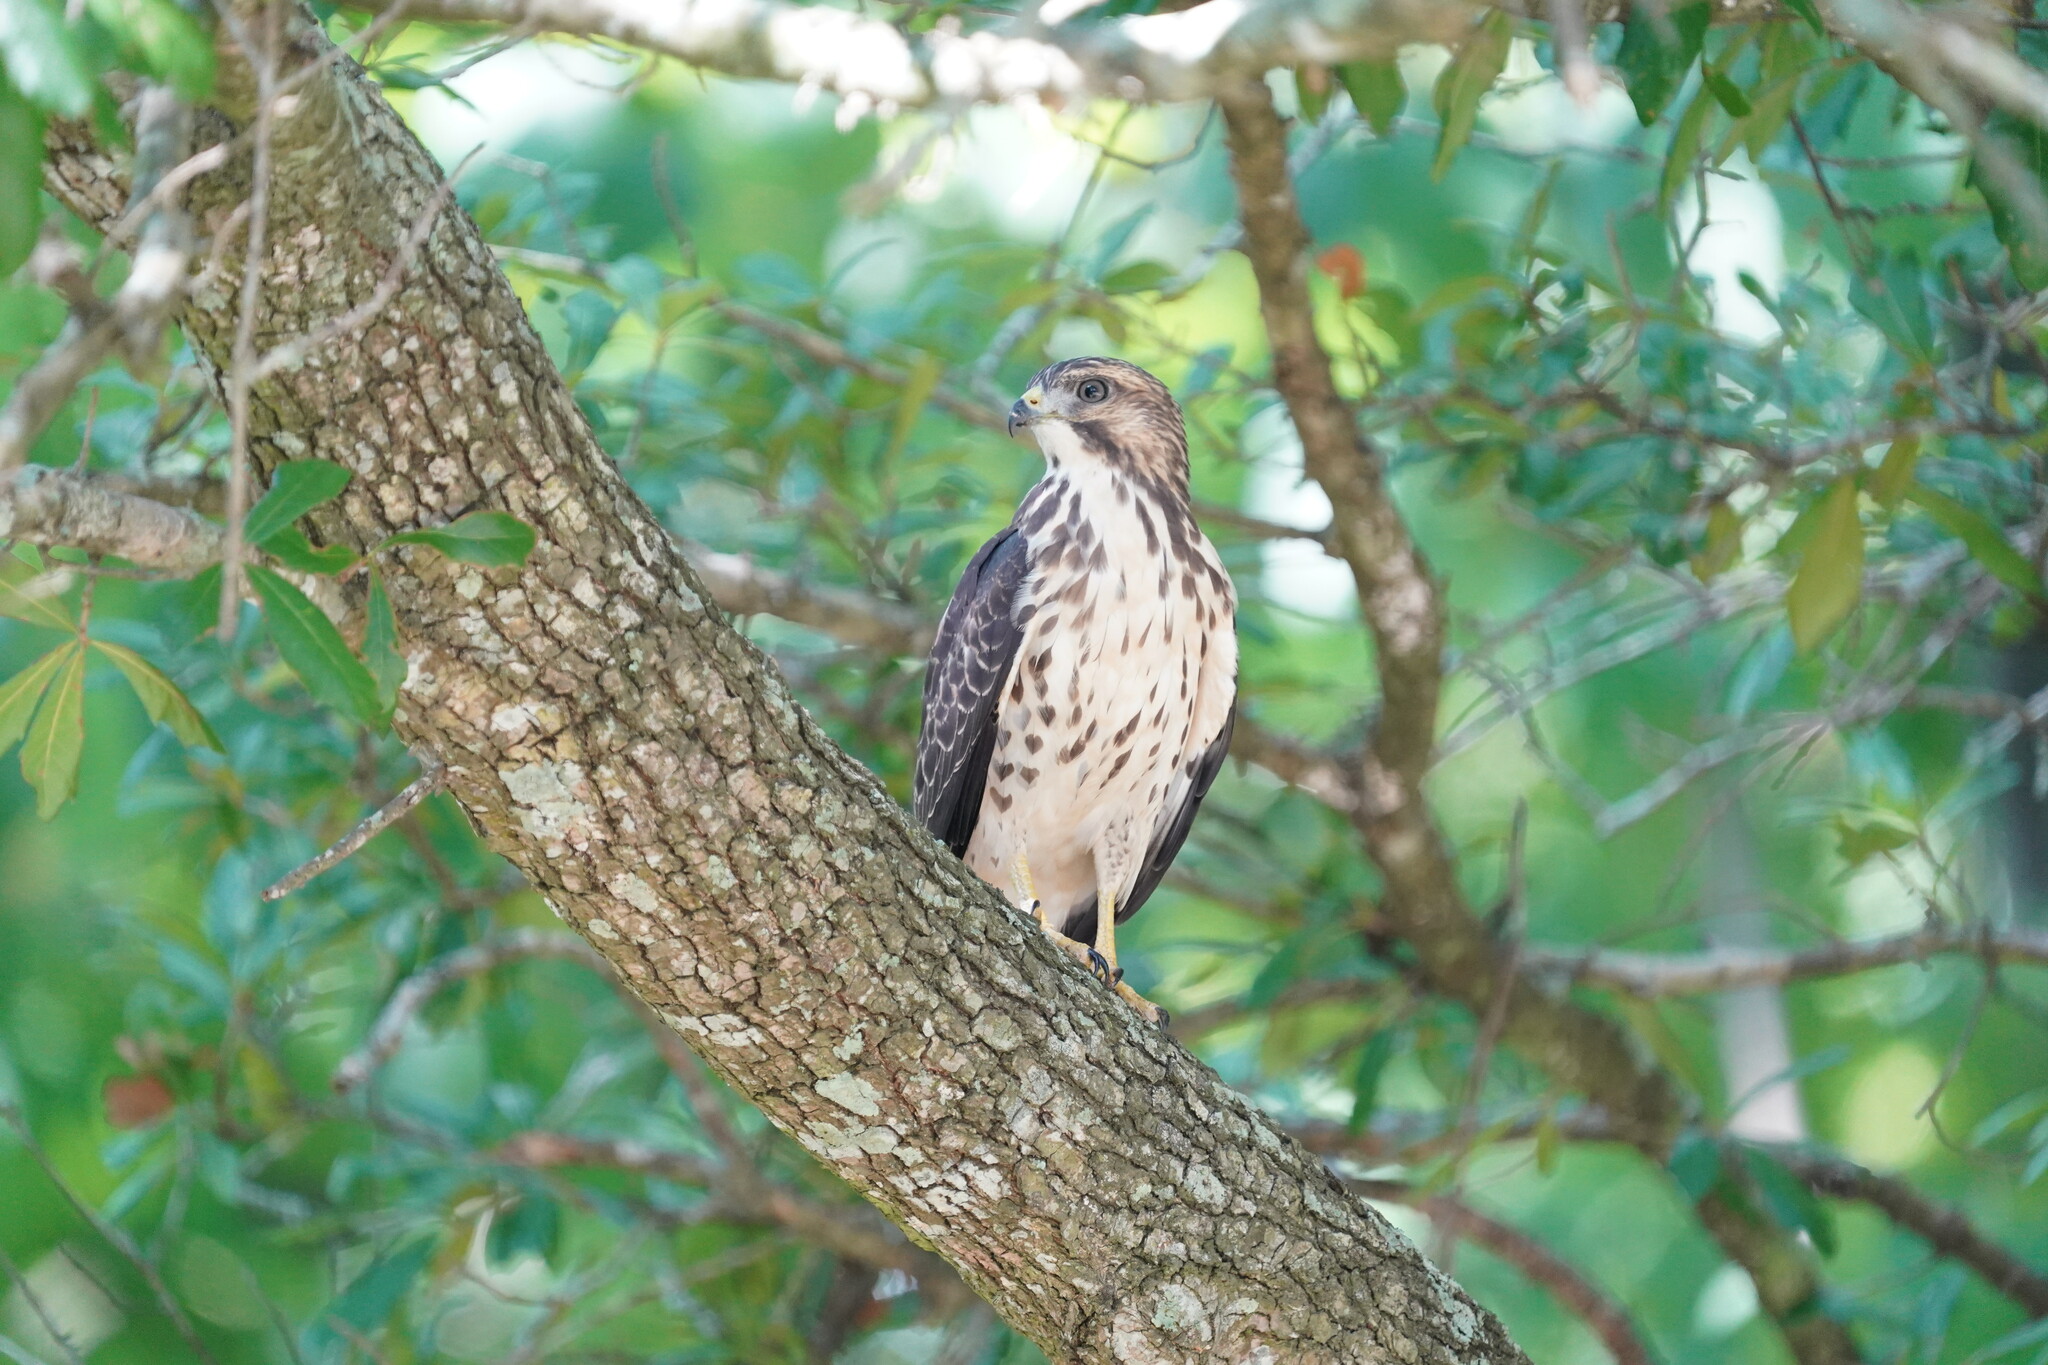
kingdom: Animalia
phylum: Chordata
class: Aves
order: Accipitriformes
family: Accipitridae
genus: Buteo
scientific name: Buteo platypterus
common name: Broad-winged hawk
